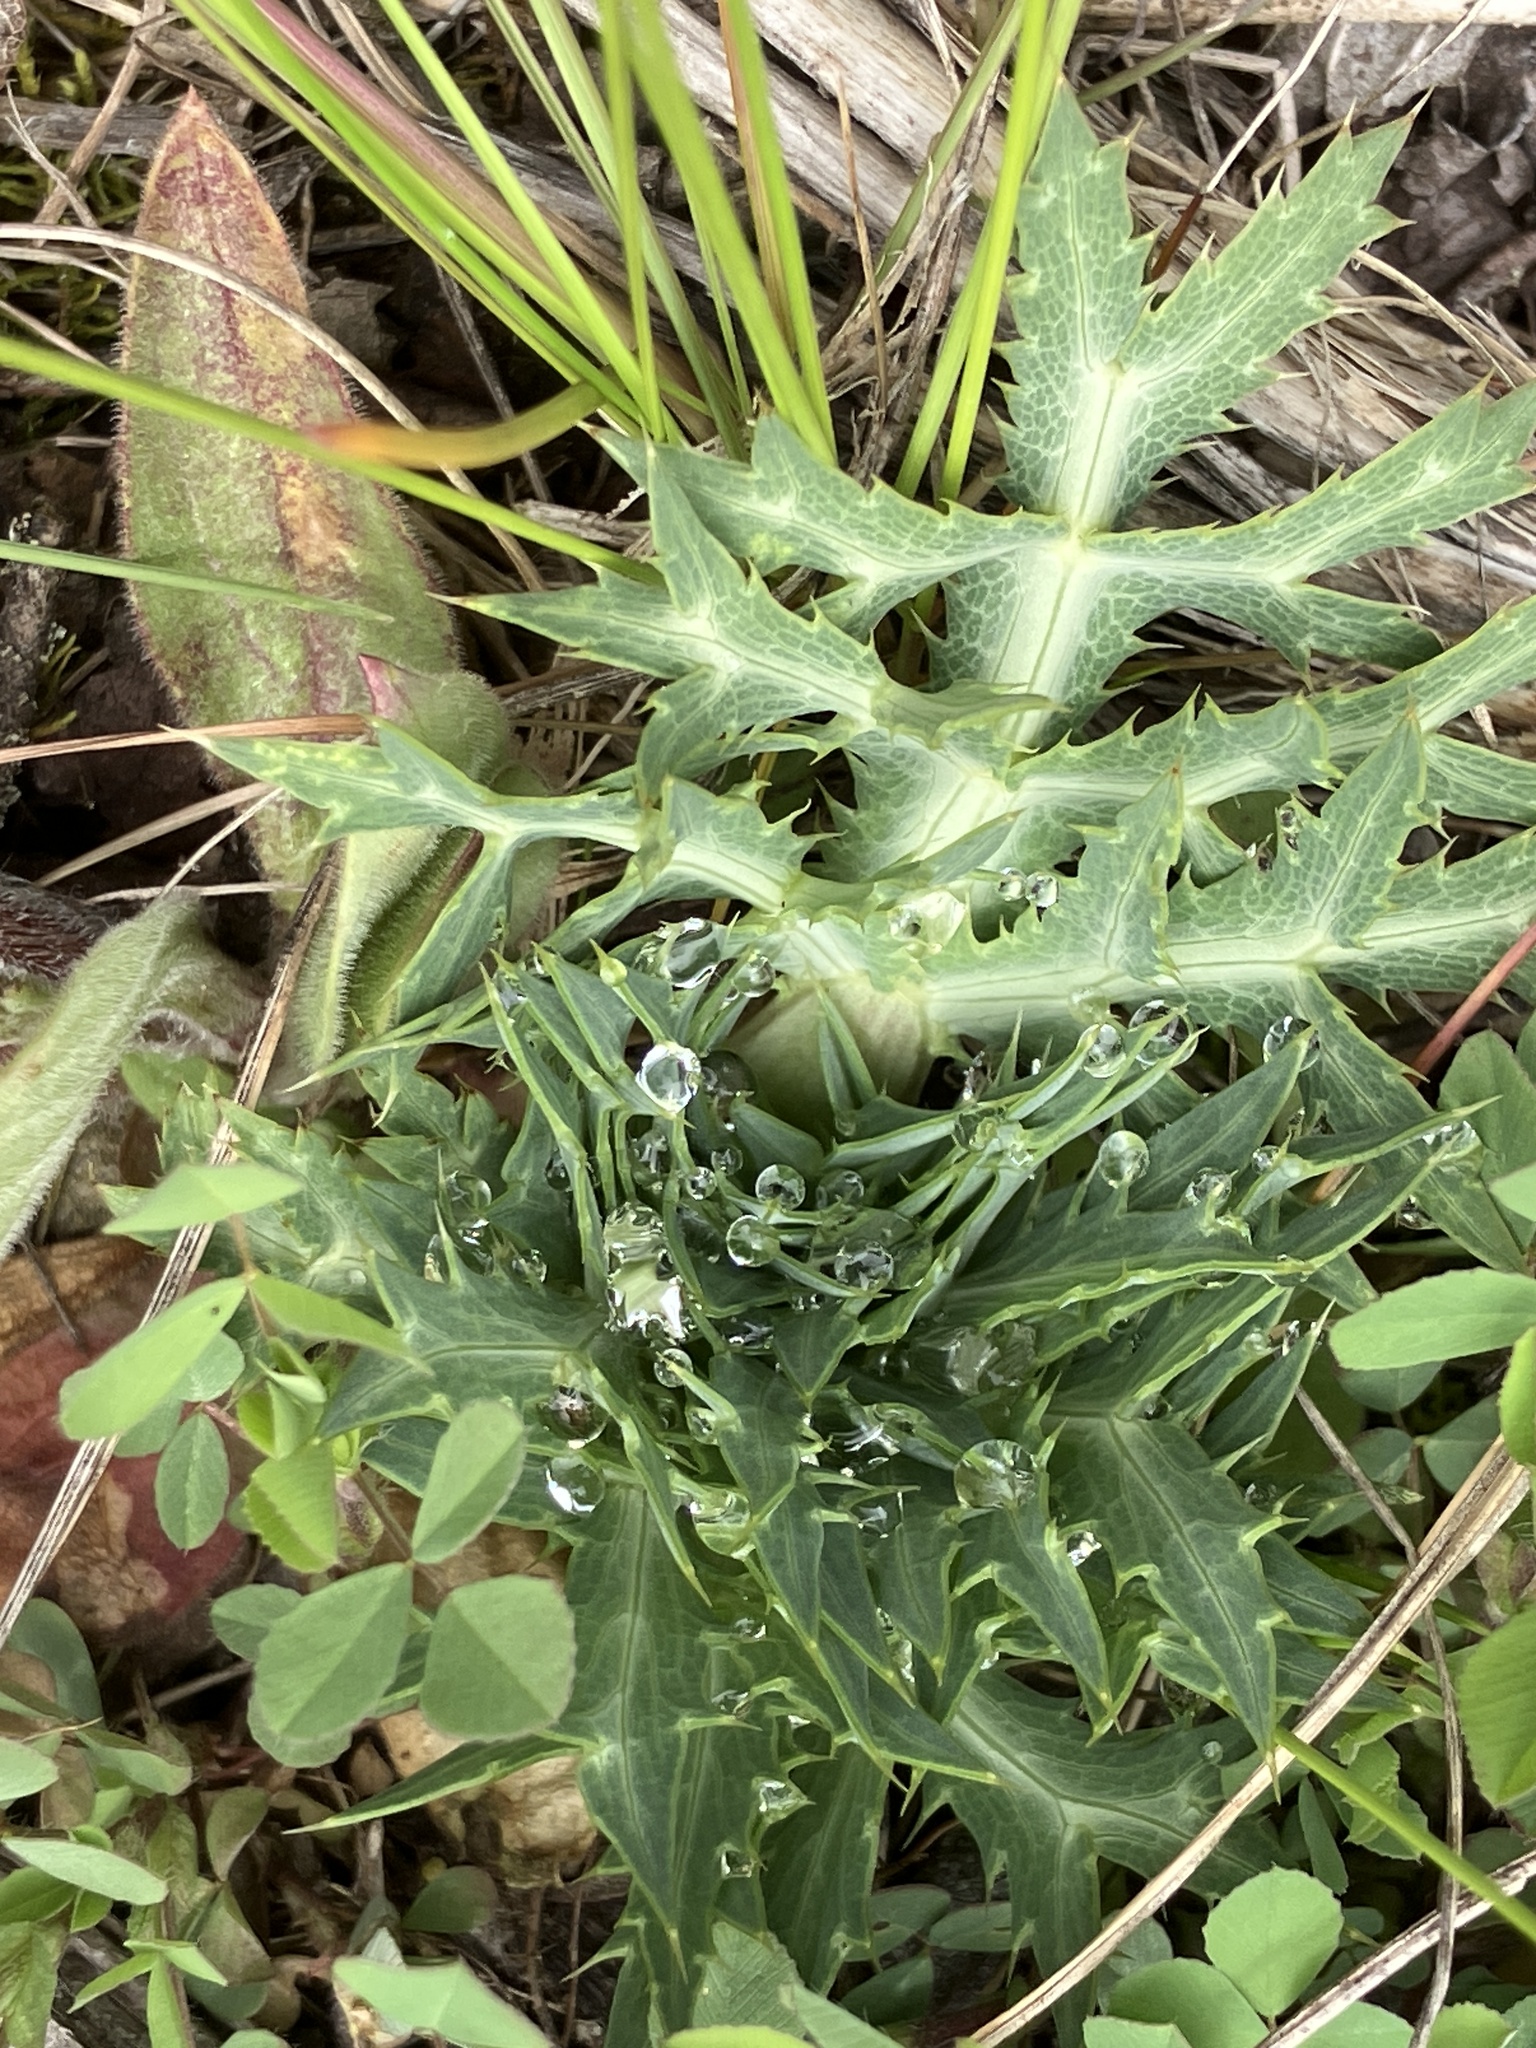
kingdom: Plantae
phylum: Tracheophyta
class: Magnoliopsida
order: Apiales
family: Apiaceae
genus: Eryngium
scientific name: Eryngium campestre
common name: Field eryngo
